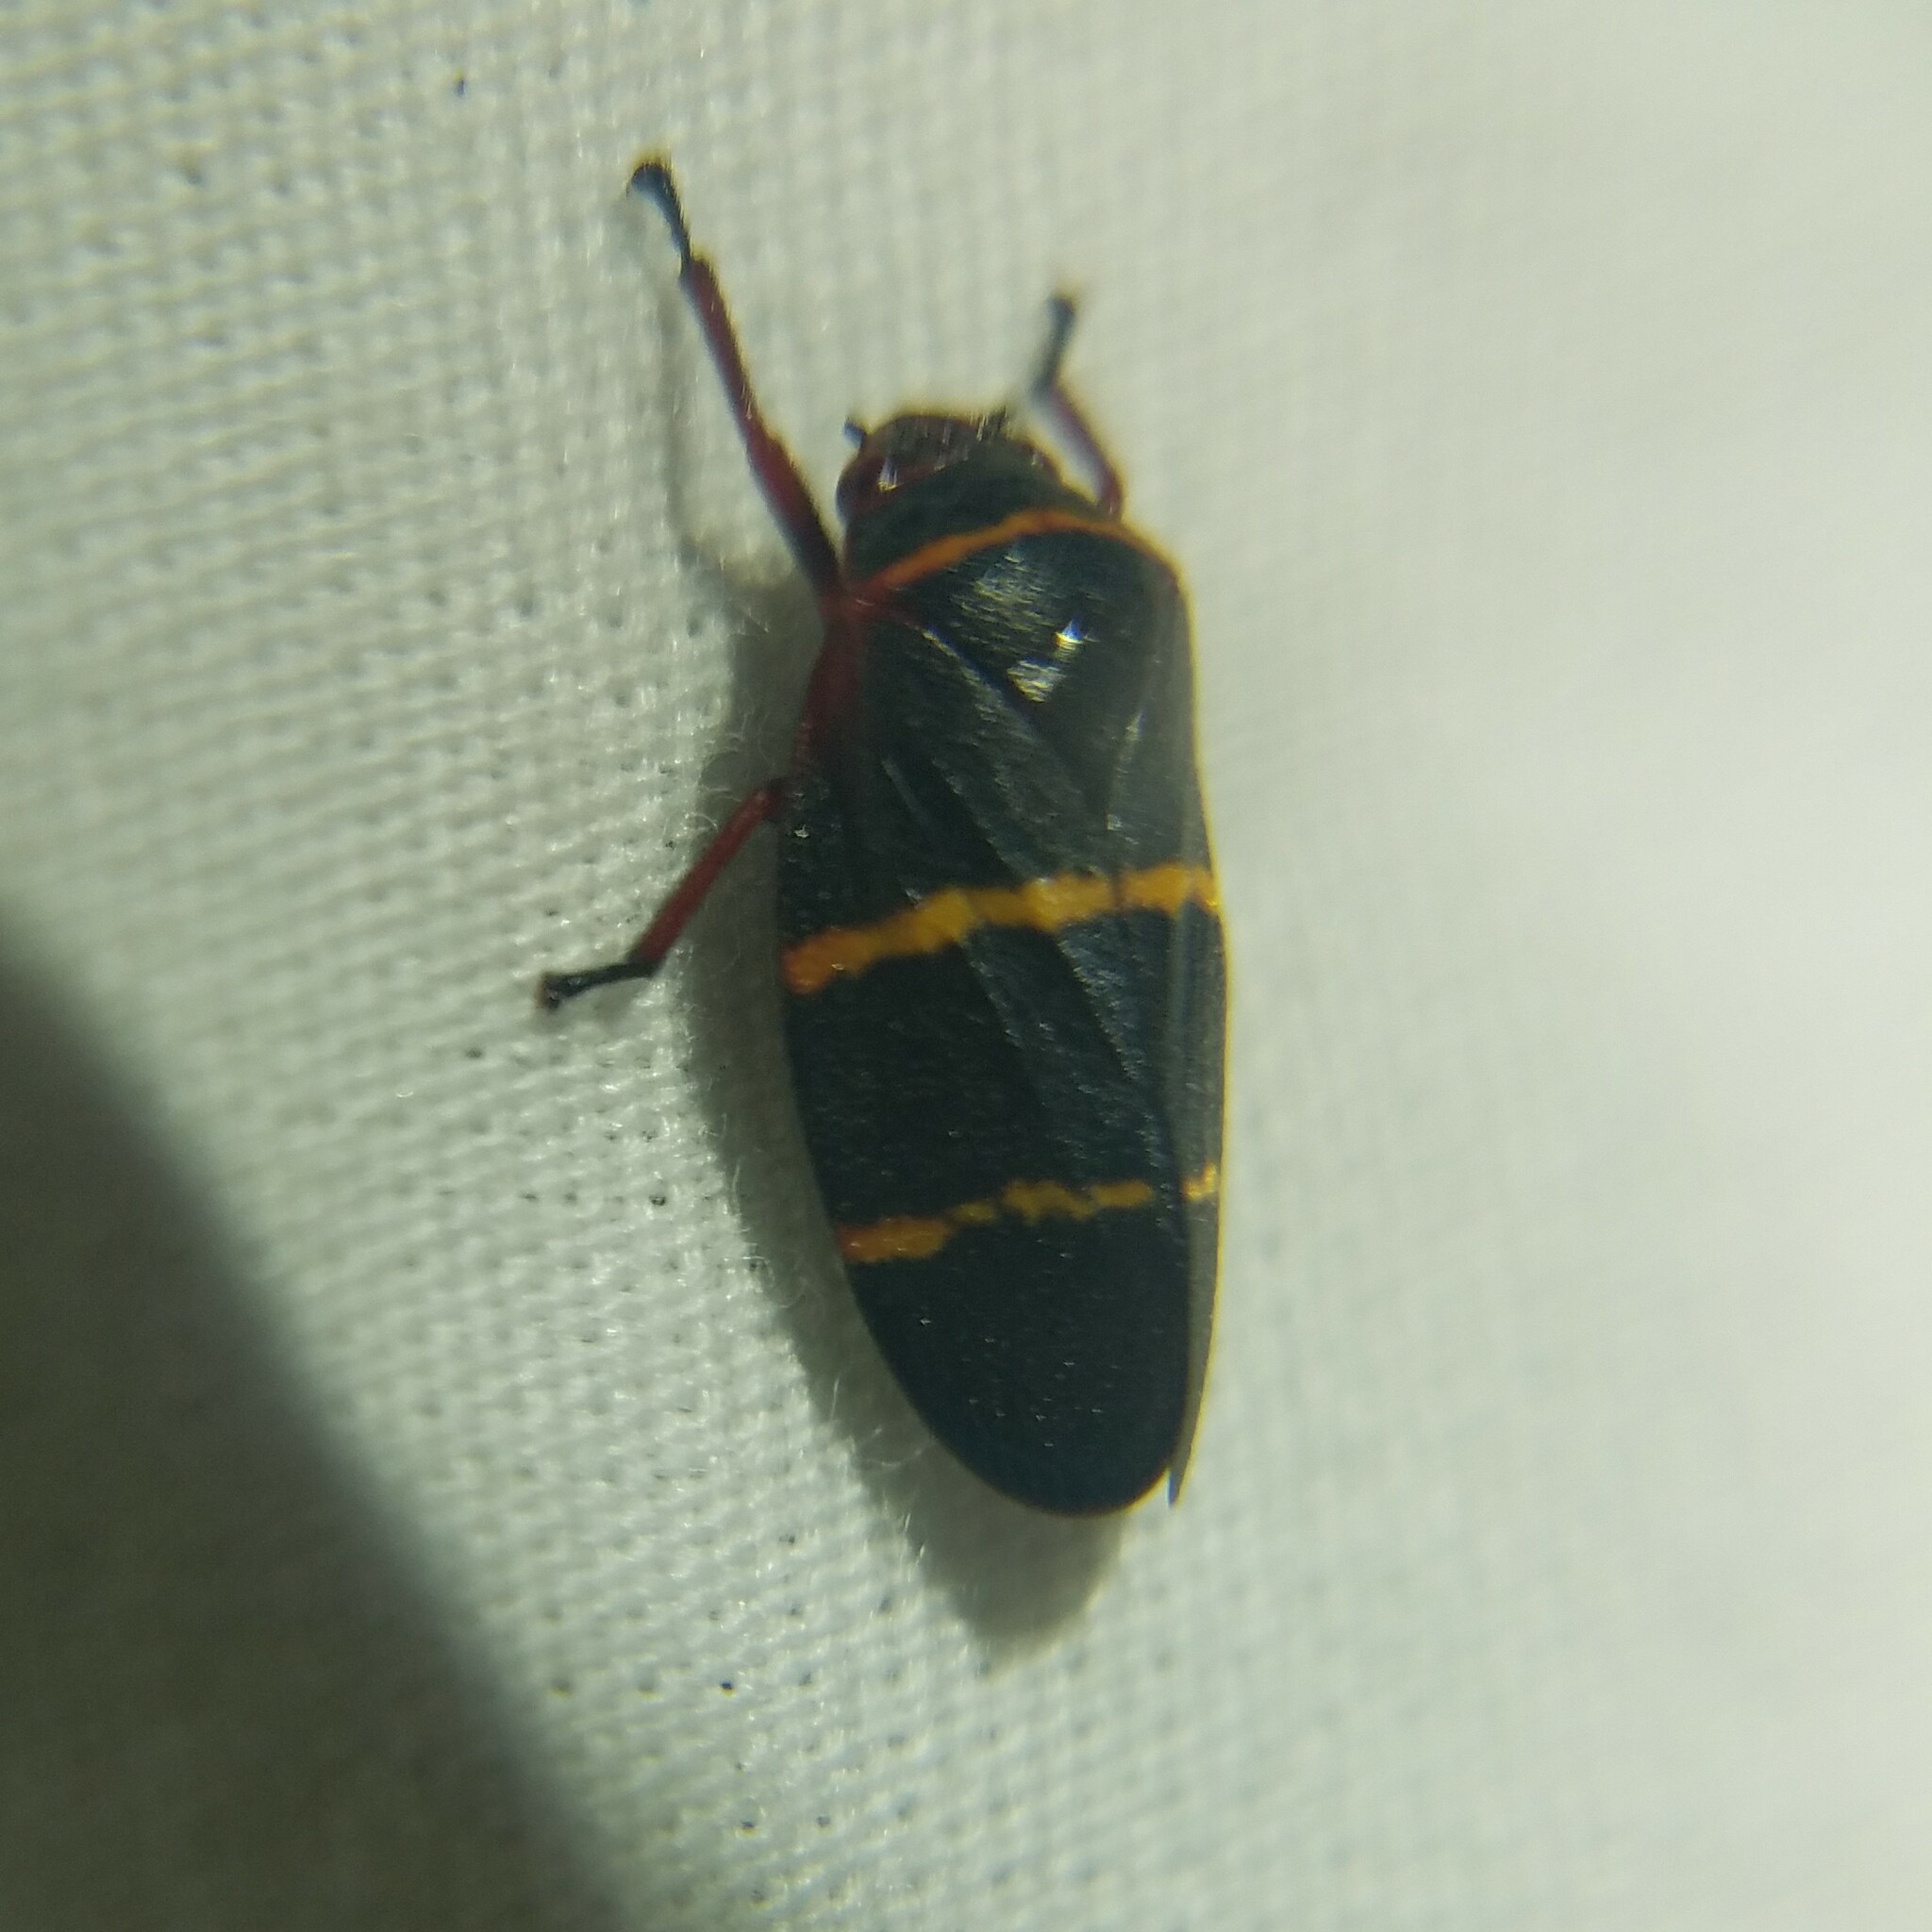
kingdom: Animalia
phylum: Arthropoda
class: Insecta
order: Hemiptera
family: Cercopidae
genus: Prosapia
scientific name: Prosapia bicincta
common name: Twolined spittlebug
